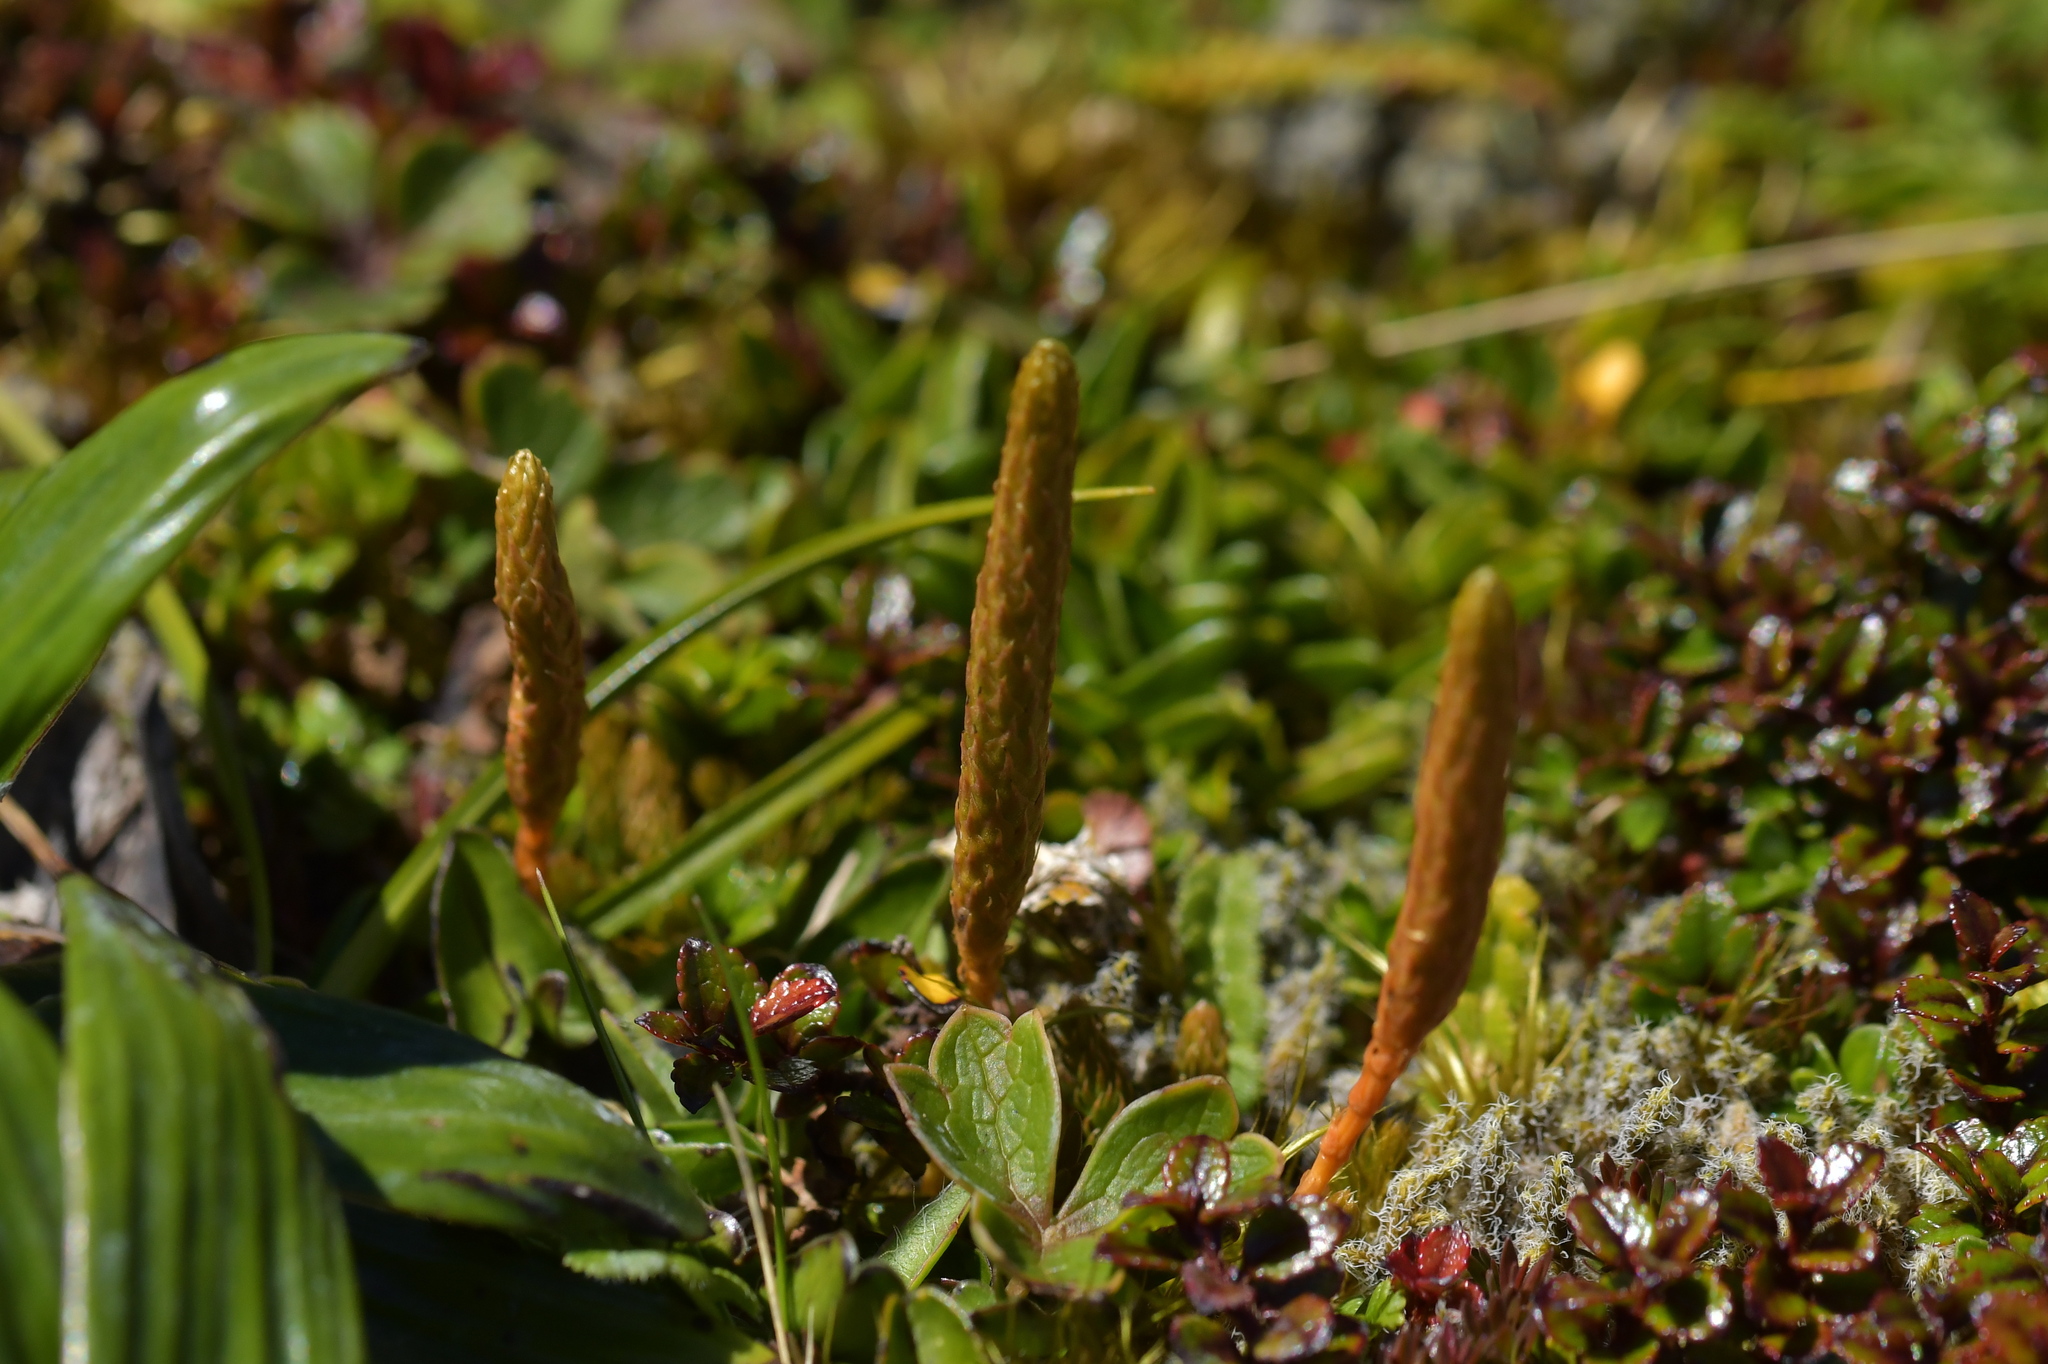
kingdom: Plantae
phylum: Tracheophyta
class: Lycopodiopsida
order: Lycopodiales
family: Lycopodiaceae
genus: Austrolycopodium
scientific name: Austrolycopodium fastigiatum
